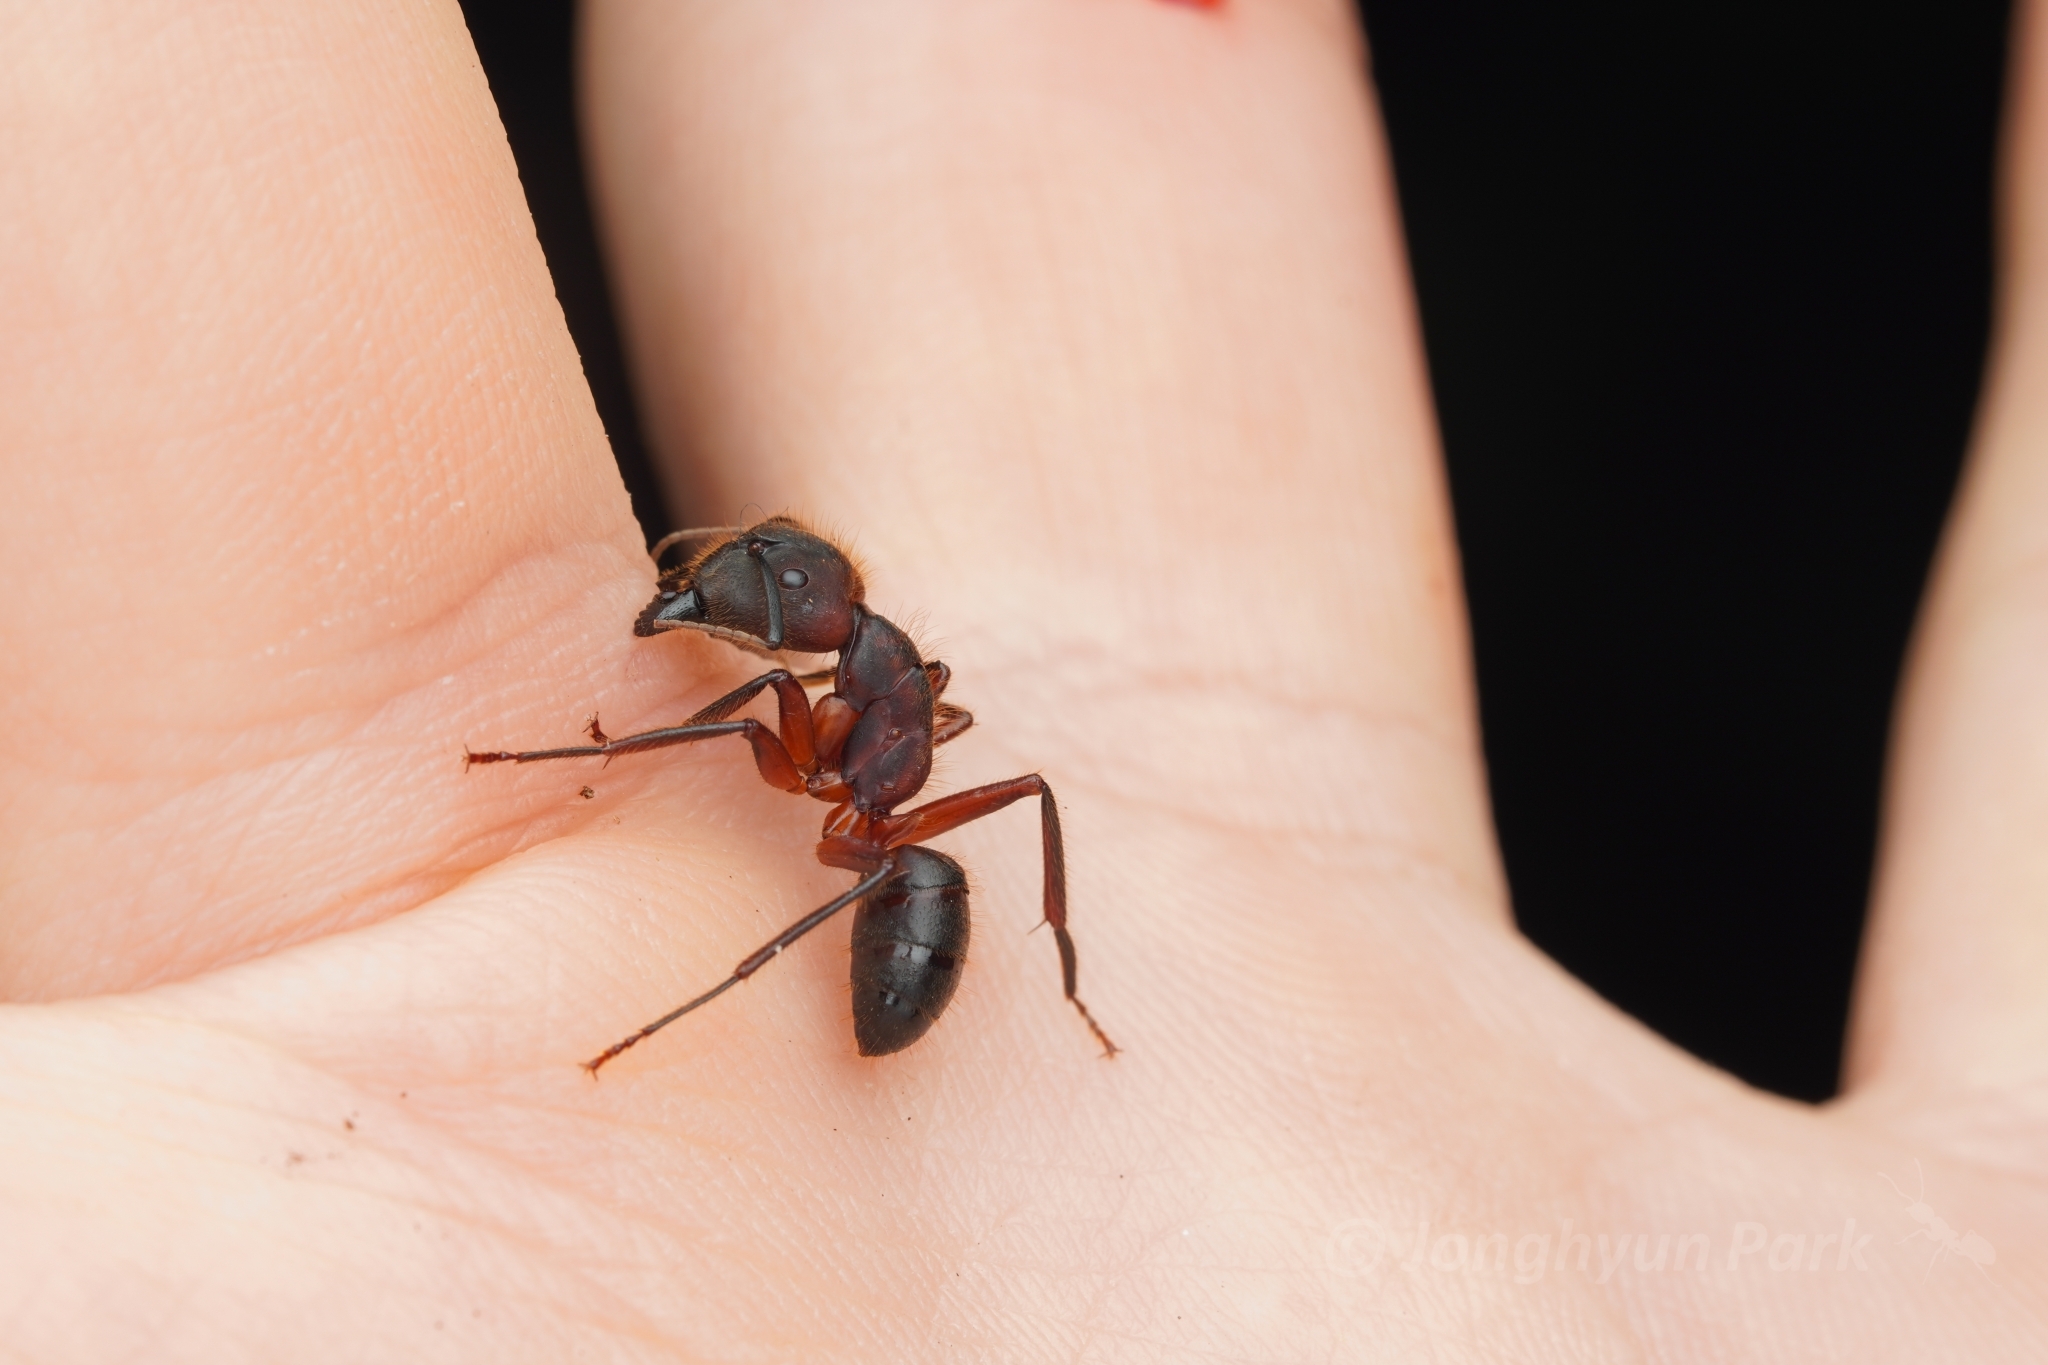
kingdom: Animalia
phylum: Arthropoda
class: Insecta
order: Hymenoptera
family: Formicidae
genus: Camponotus
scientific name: Camponotus misturus
